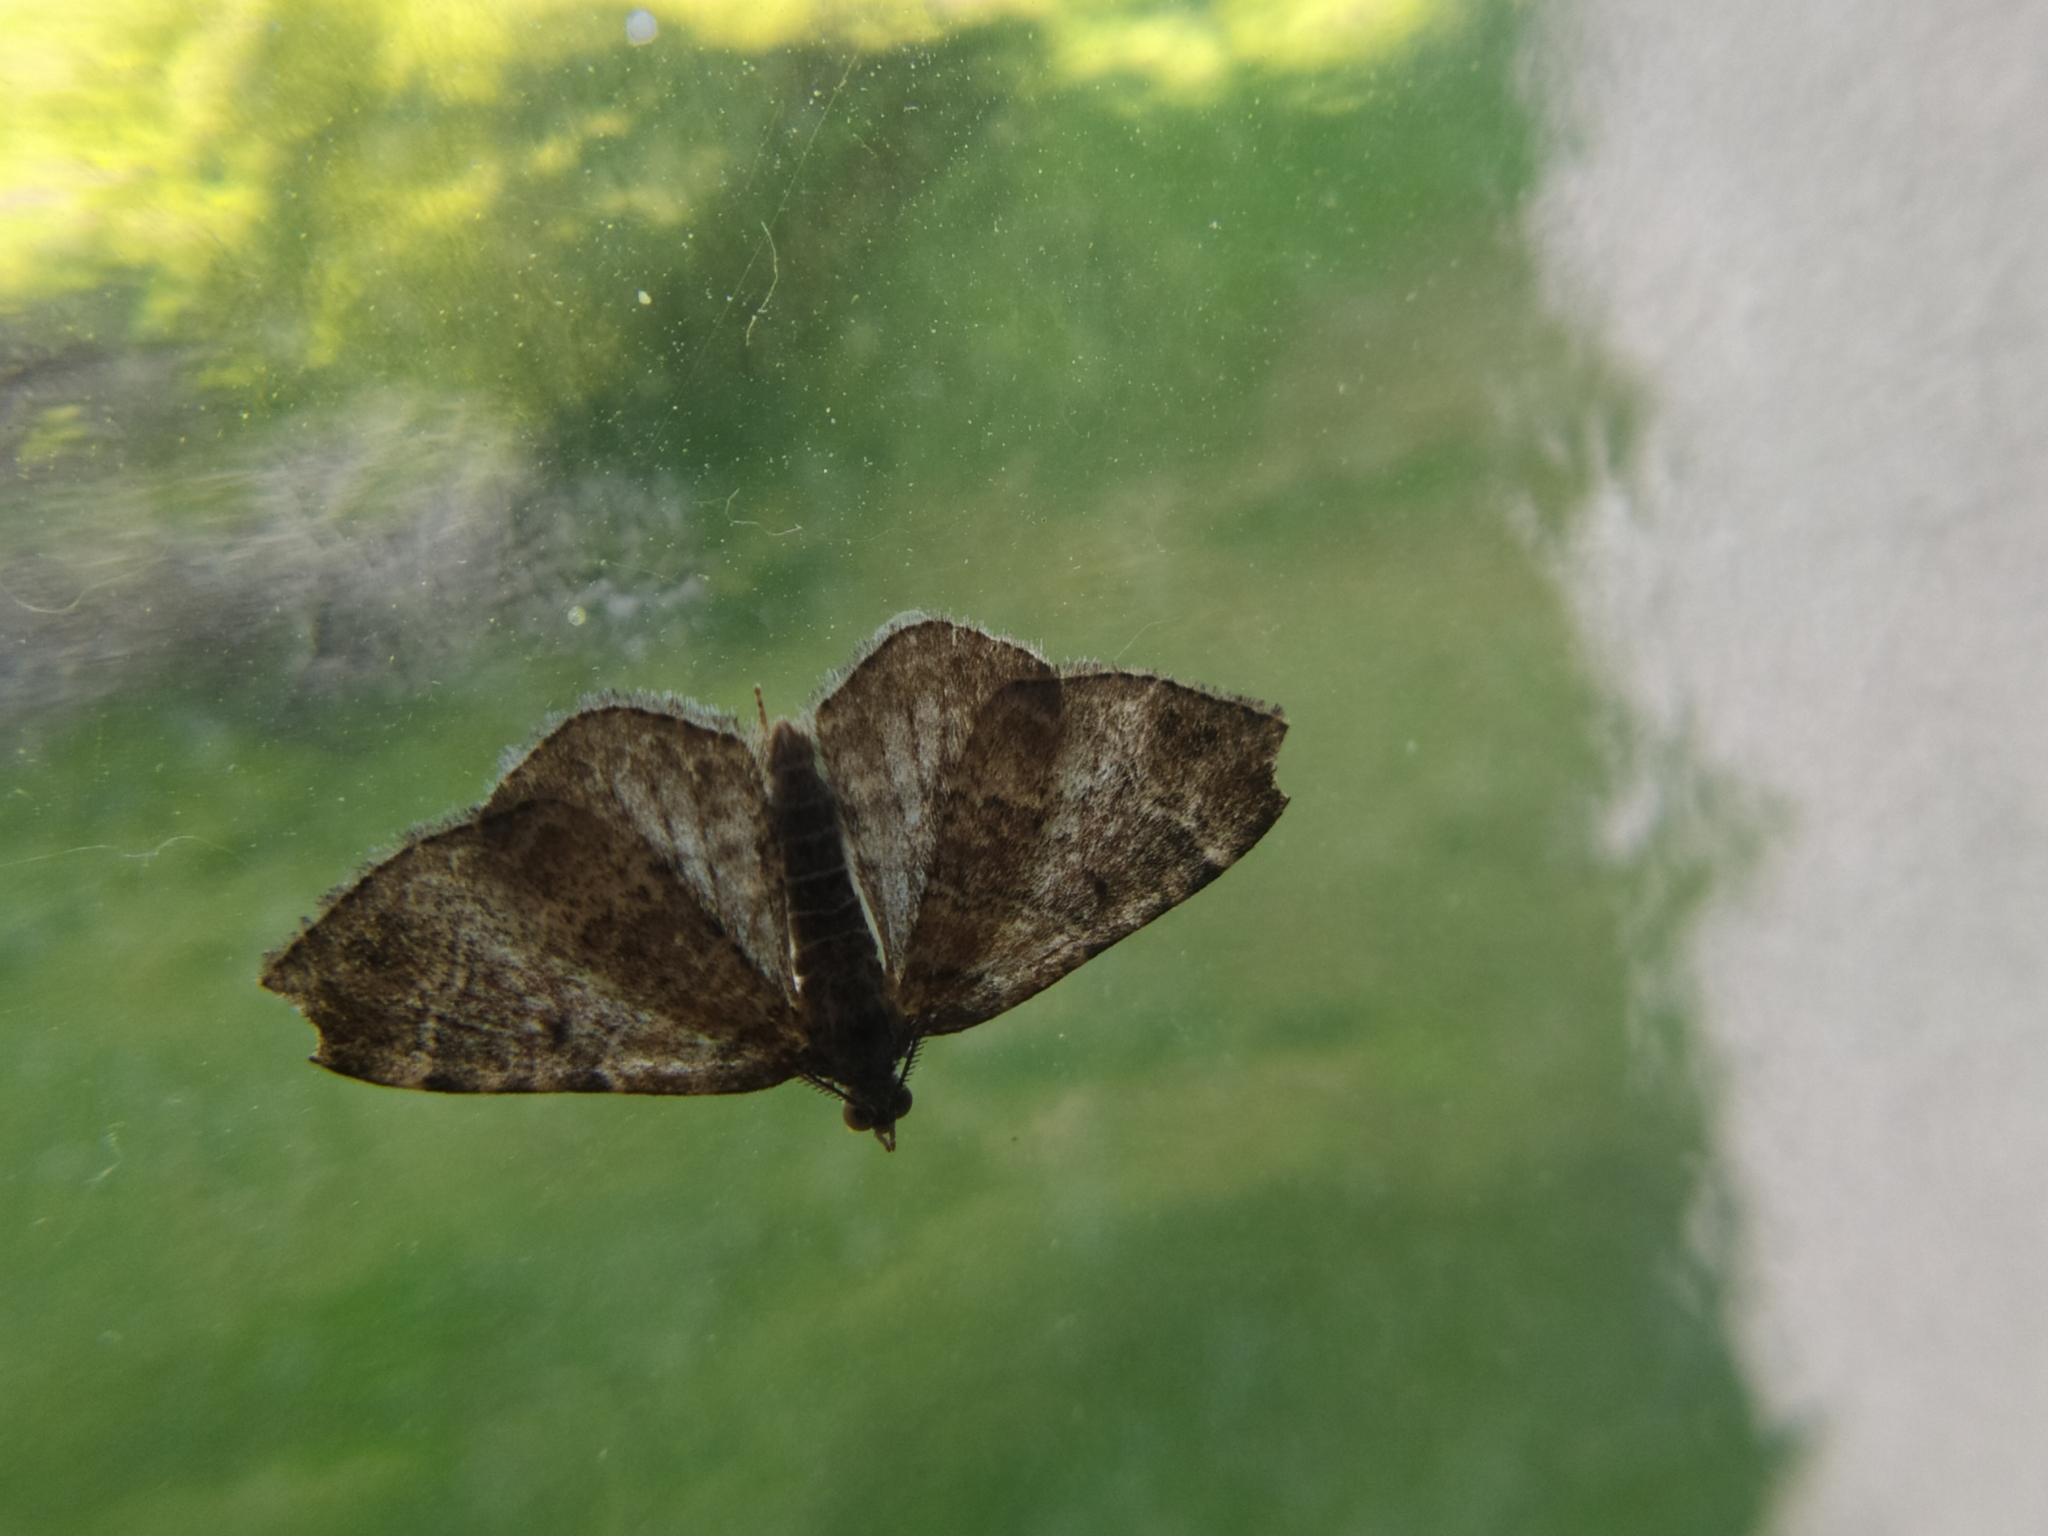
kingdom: Animalia
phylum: Arthropoda
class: Insecta
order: Lepidoptera
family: Geometridae
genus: Xanthorhoe
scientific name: Xanthorhoe ferrugata
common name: Dark-barred twin-spot carpet
